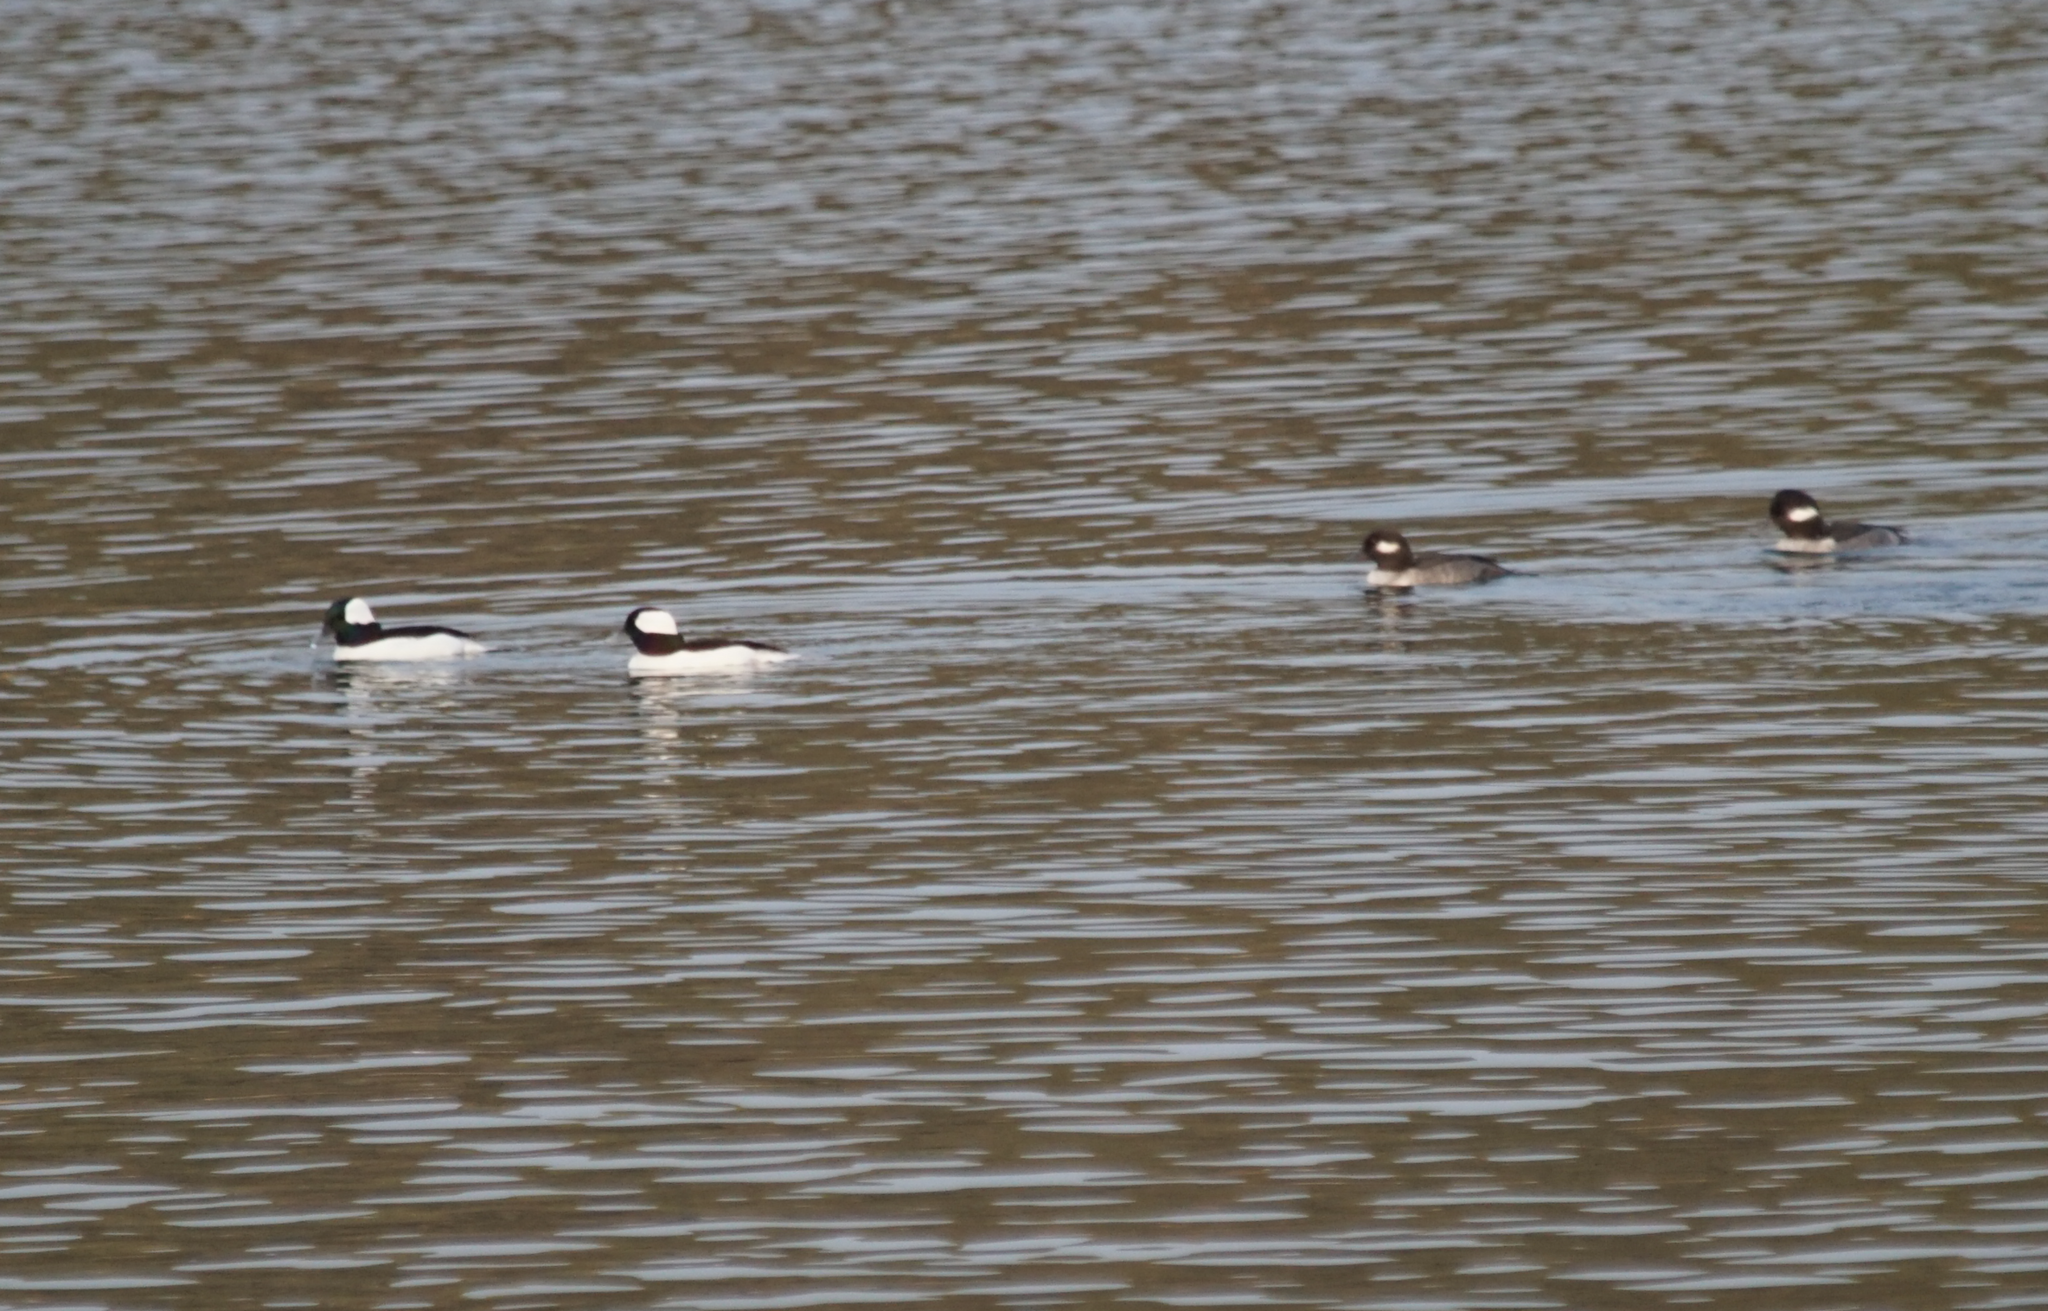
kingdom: Animalia
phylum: Chordata
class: Aves
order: Anseriformes
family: Anatidae
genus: Bucephala
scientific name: Bucephala albeola
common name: Bufflehead
